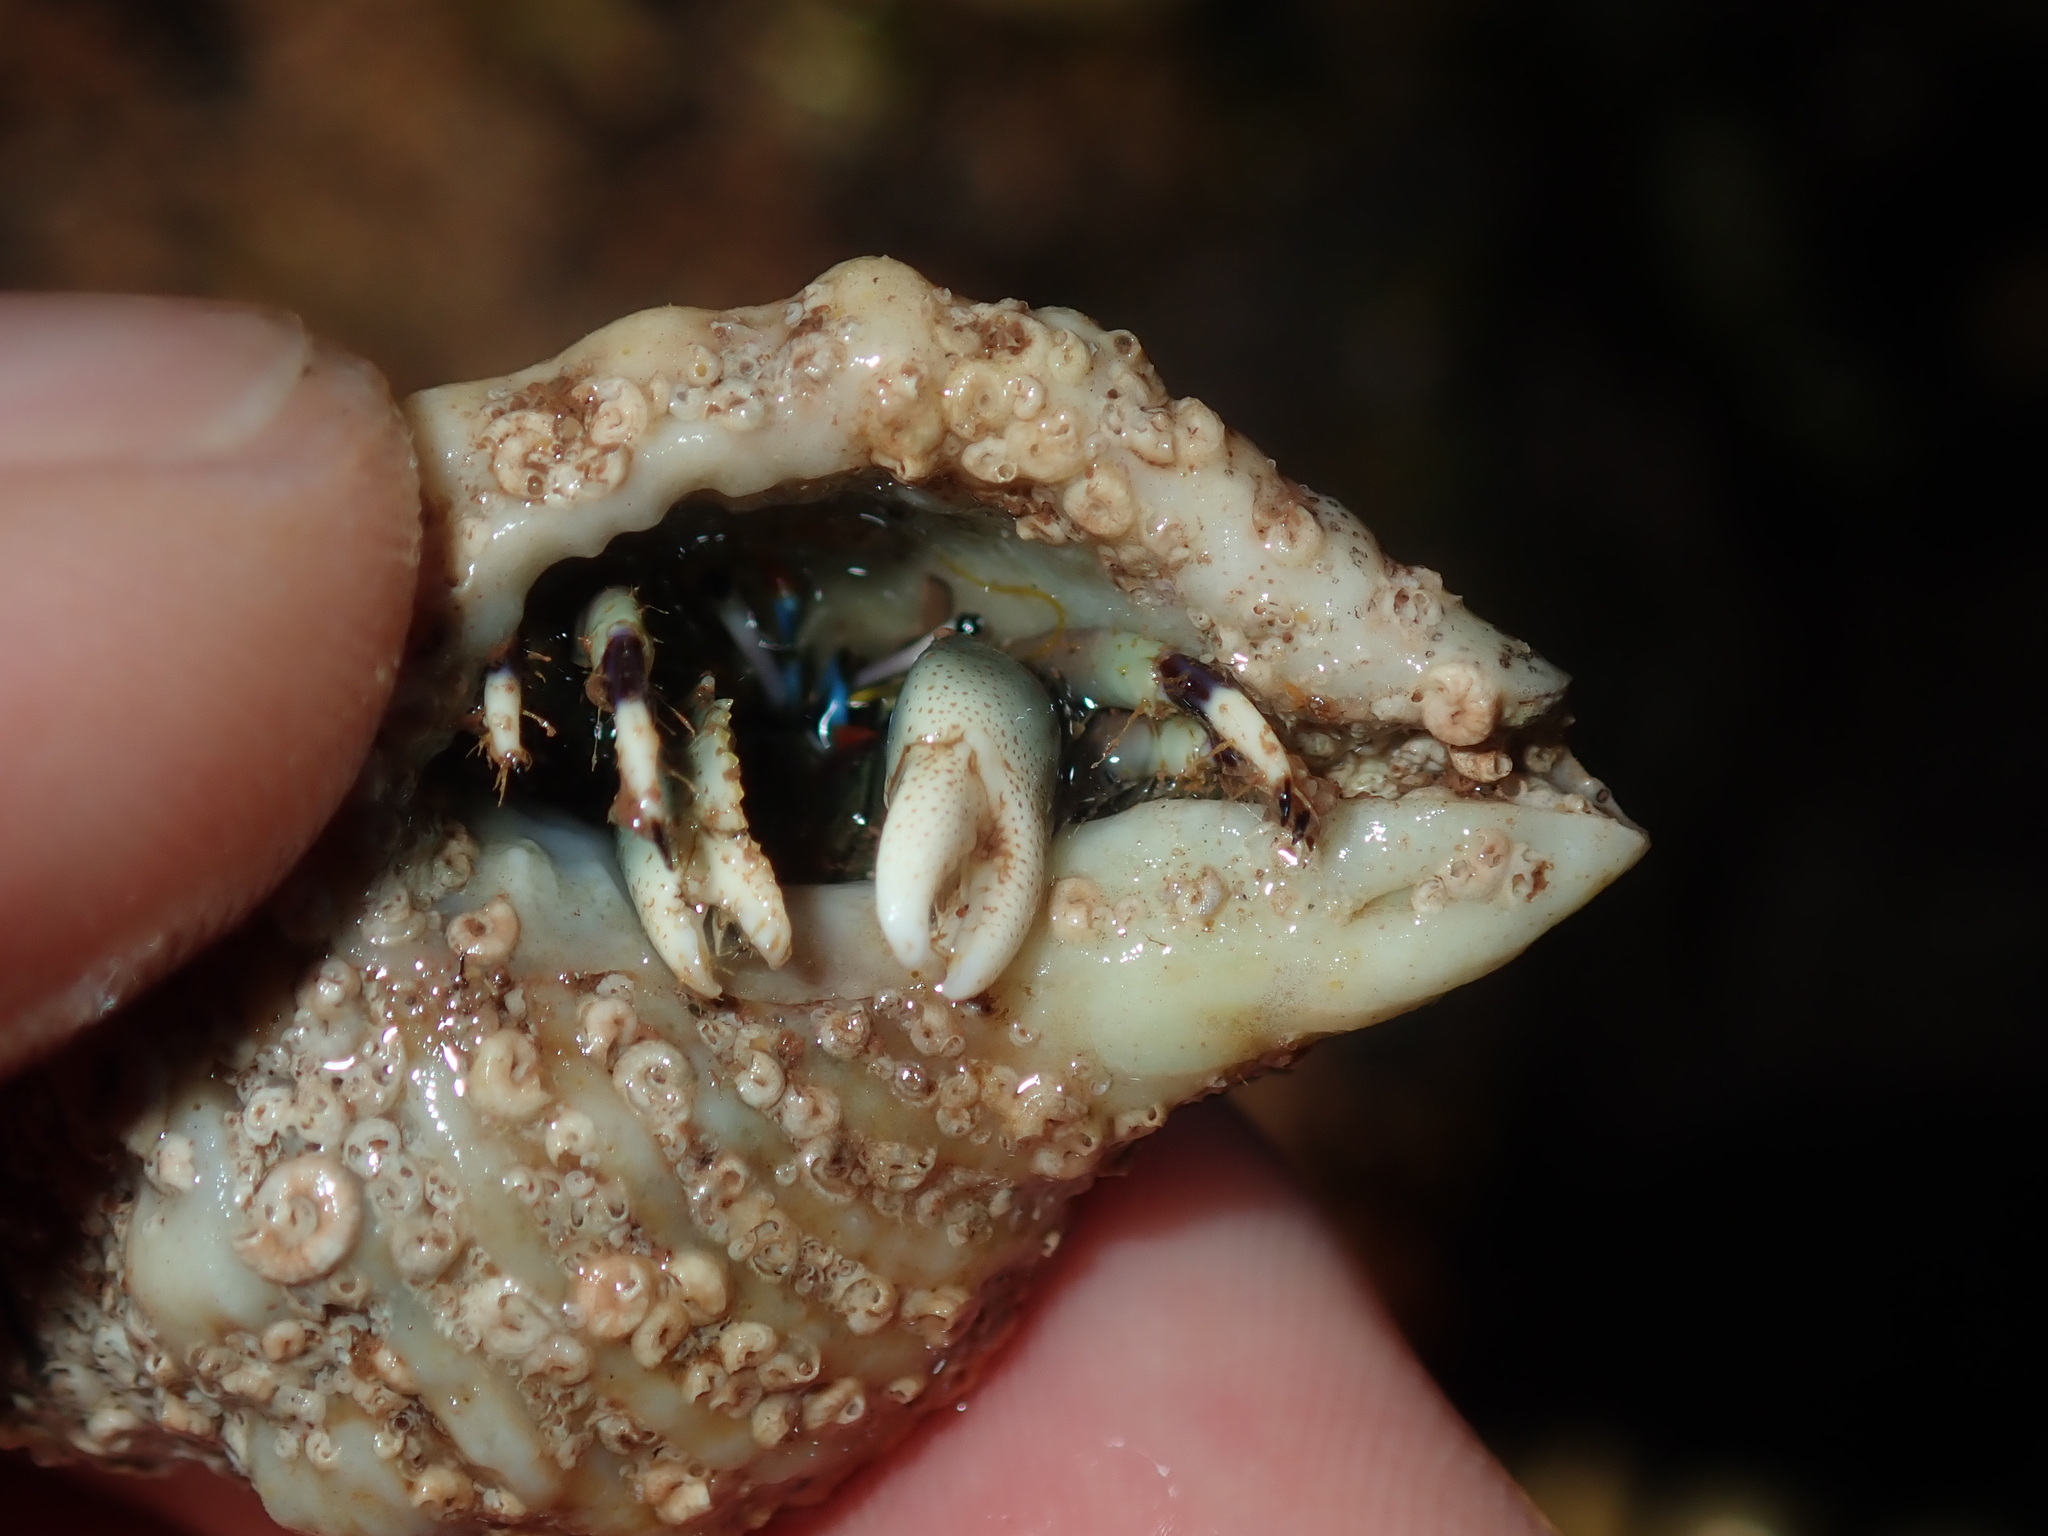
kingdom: Animalia
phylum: Arthropoda
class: Malacostraca
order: Decapoda
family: Diogenidae
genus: Calcinus
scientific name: Calcinus latens
